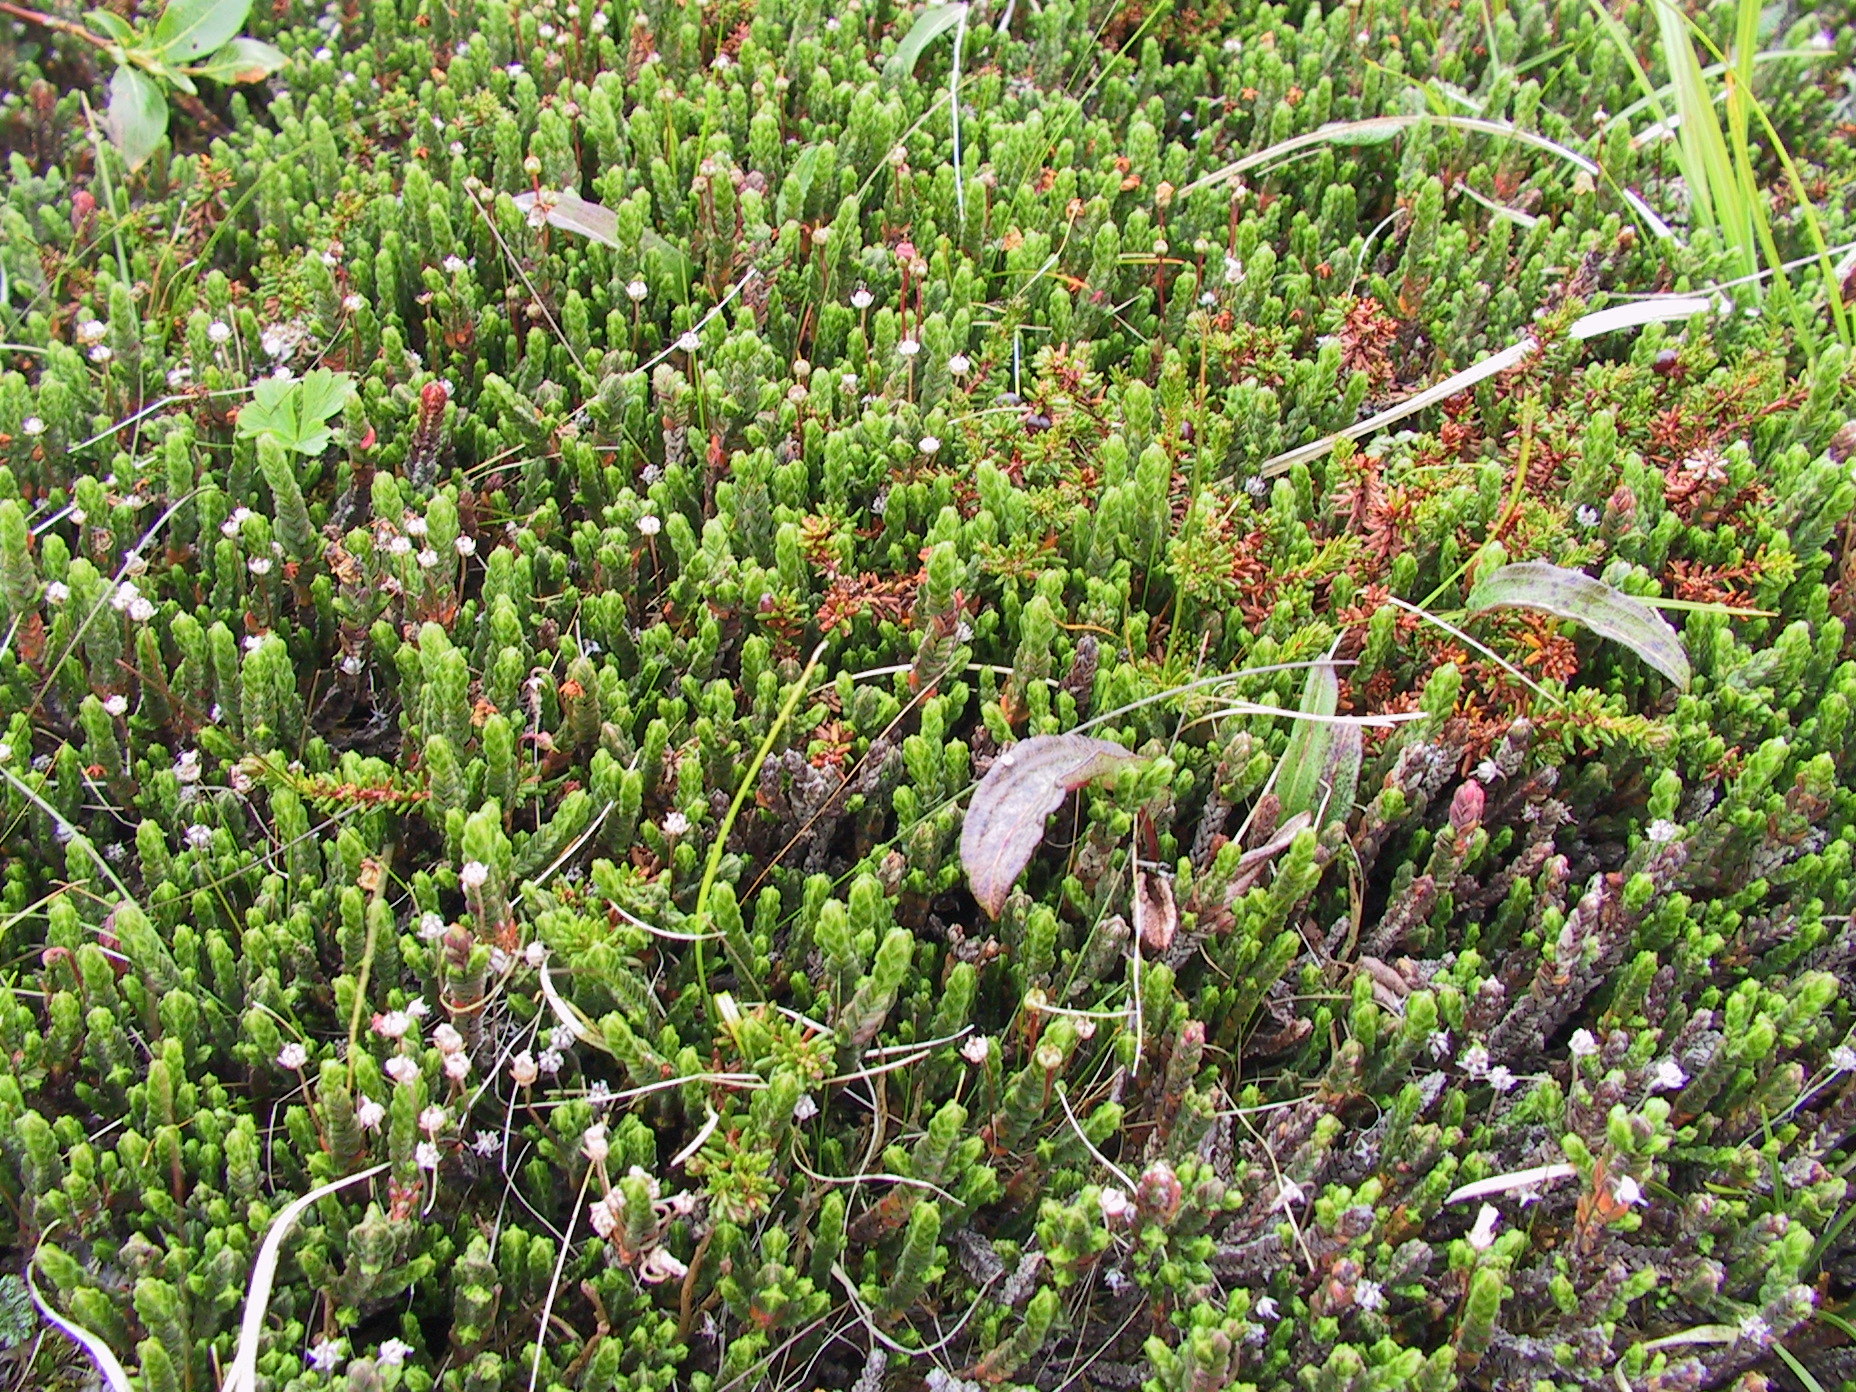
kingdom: Plantae
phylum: Tracheophyta
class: Magnoliopsida
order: Ericales
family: Ericaceae
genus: Cassiope
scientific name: Cassiope tetragona
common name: Arctic bell heather
